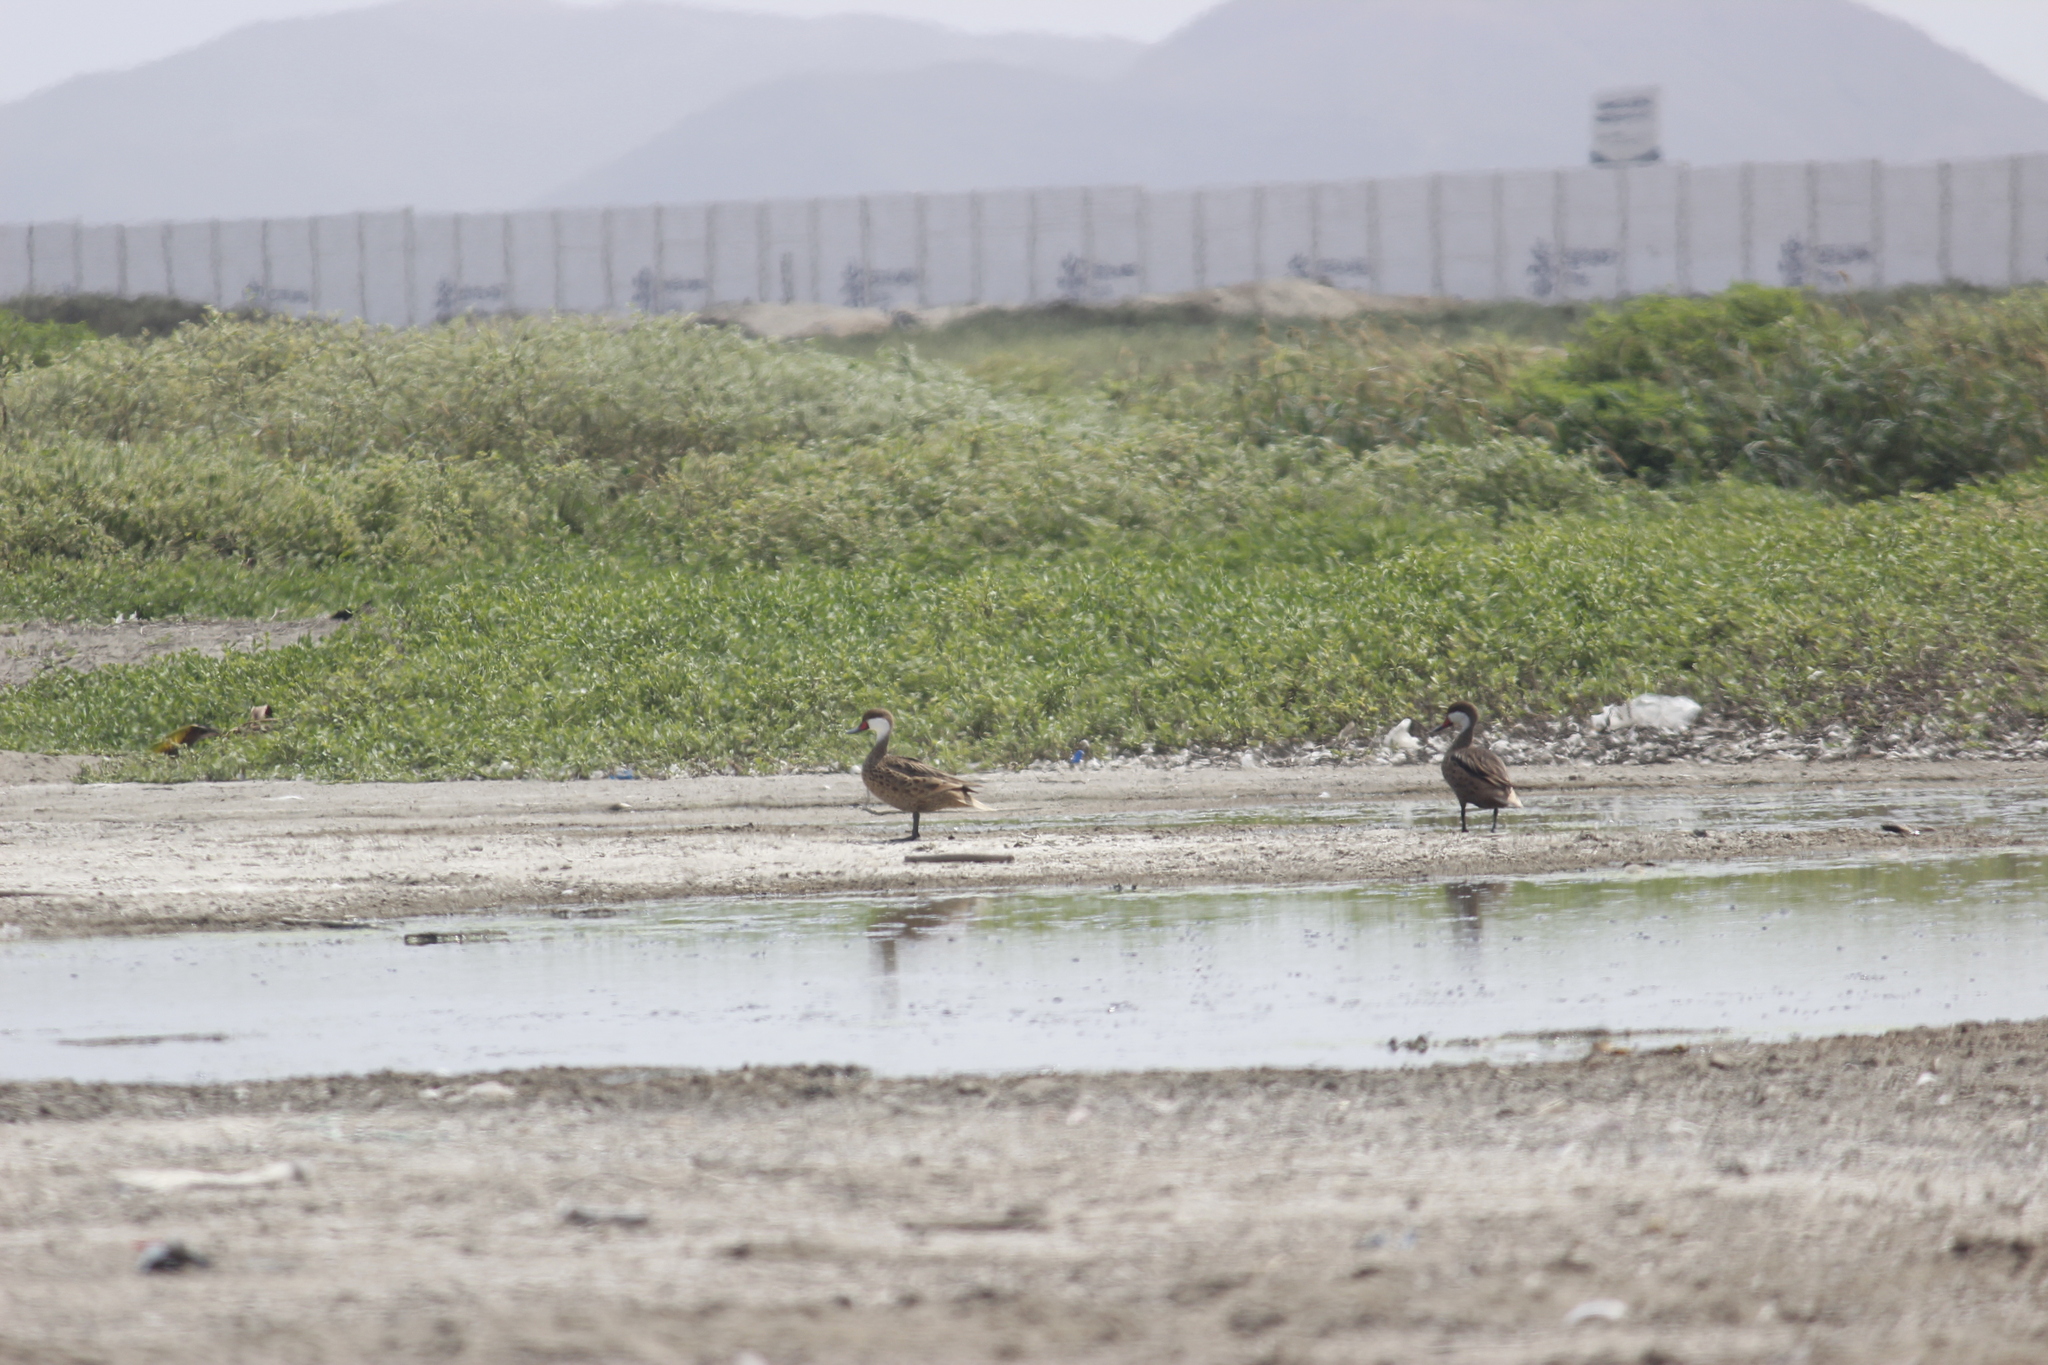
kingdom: Animalia
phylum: Chordata
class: Aves
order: Anseriformes
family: Anatidae
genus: Anas
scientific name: Anas bahamensis
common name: White-cheeked pintail
